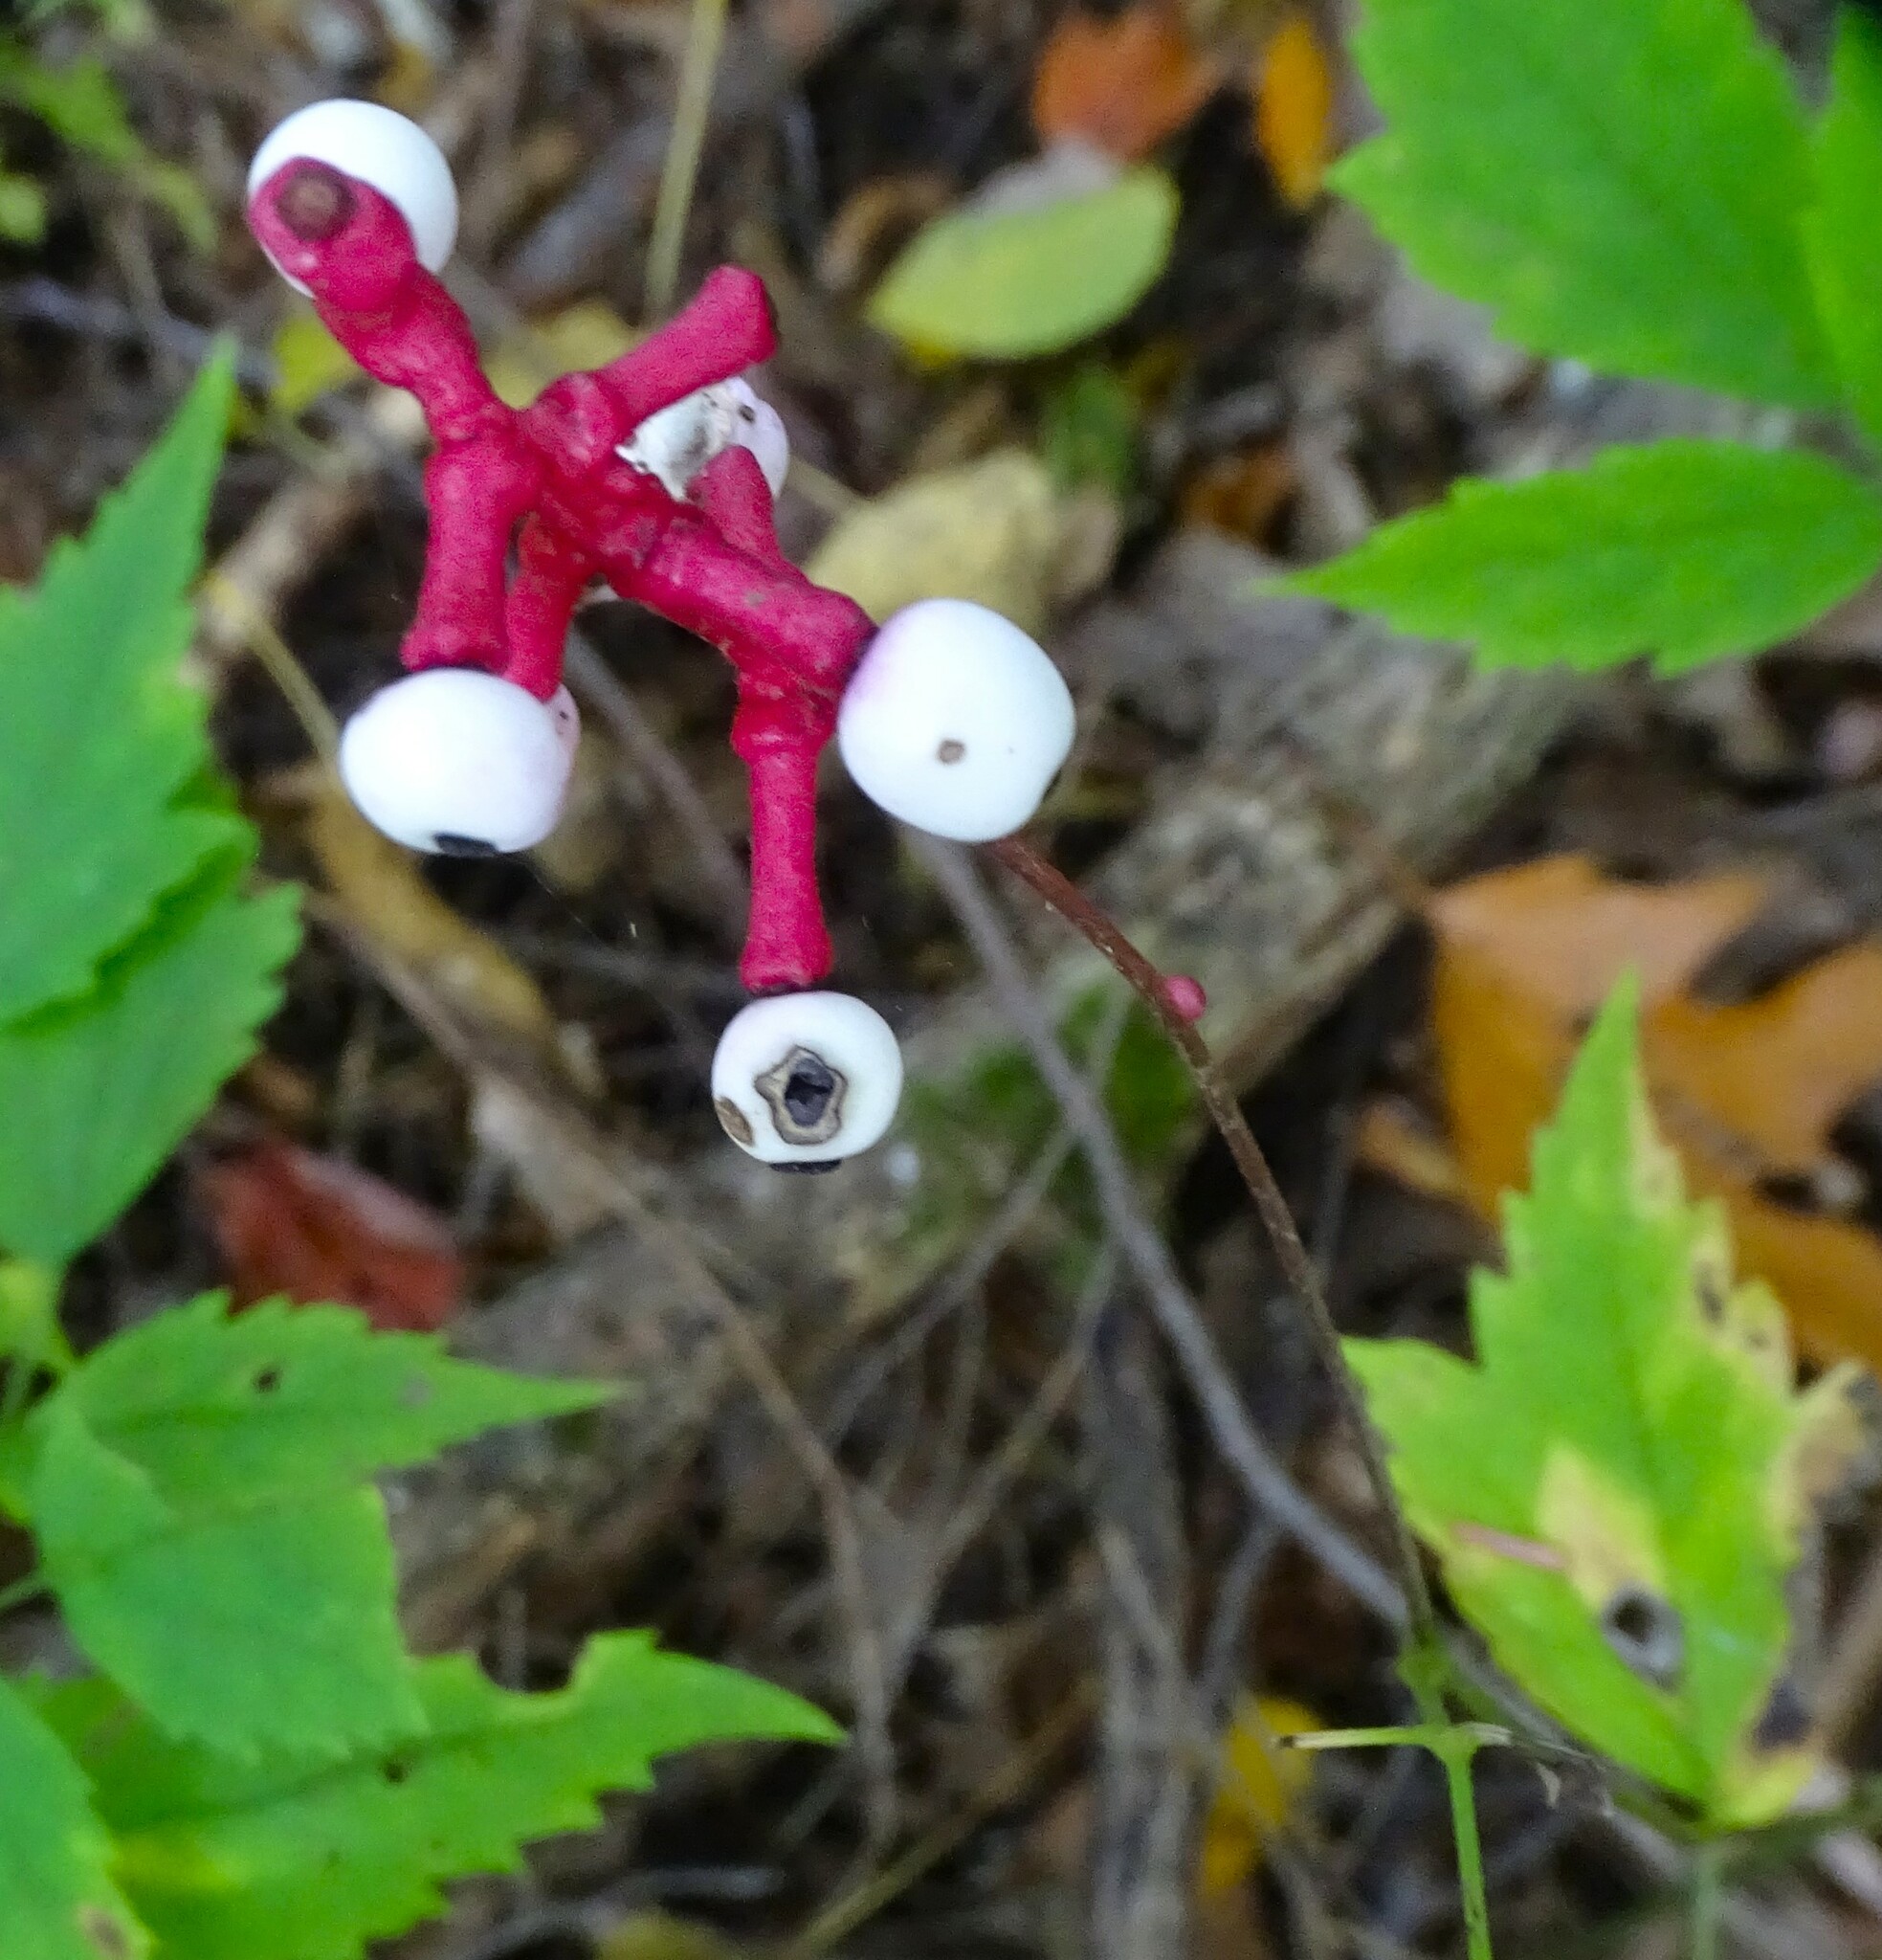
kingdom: Plantae
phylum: Tracheophyta
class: Magnoliopsida
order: Ranunculales
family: Ranunculaceae
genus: Actaea
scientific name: Actaea pachypoda
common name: Doll's-eyes
